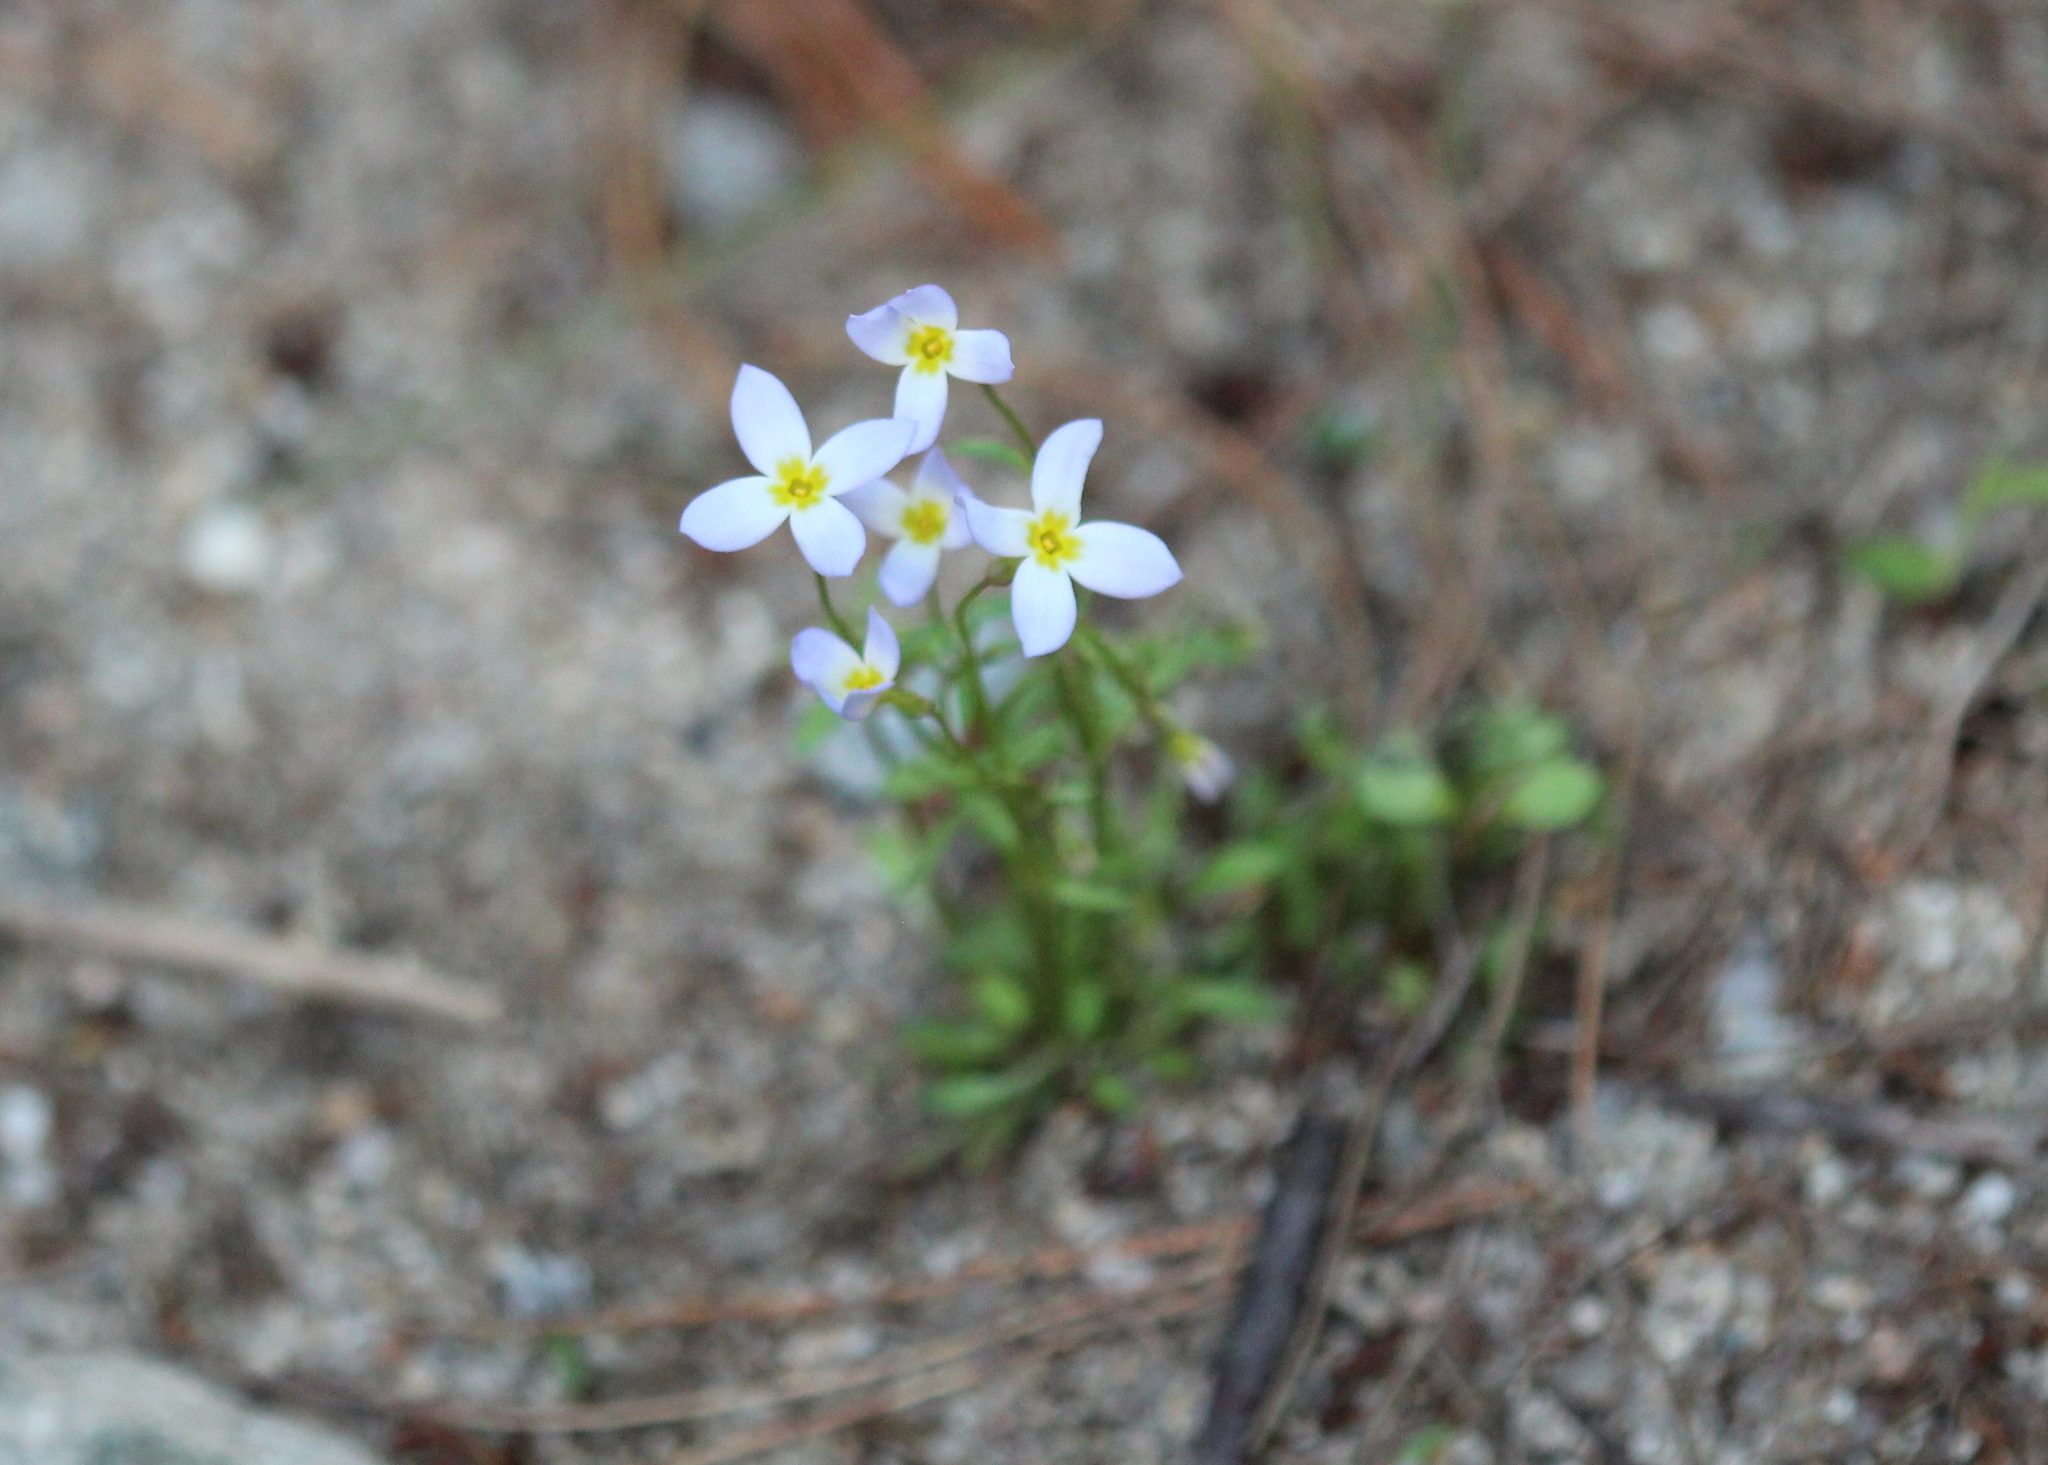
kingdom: Plantae
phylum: Tracheophyta
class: Magnoliopsida
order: Gentianales
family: Rubiaceae
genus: Houstonia
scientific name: Houstonia caerulea
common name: Bluets
